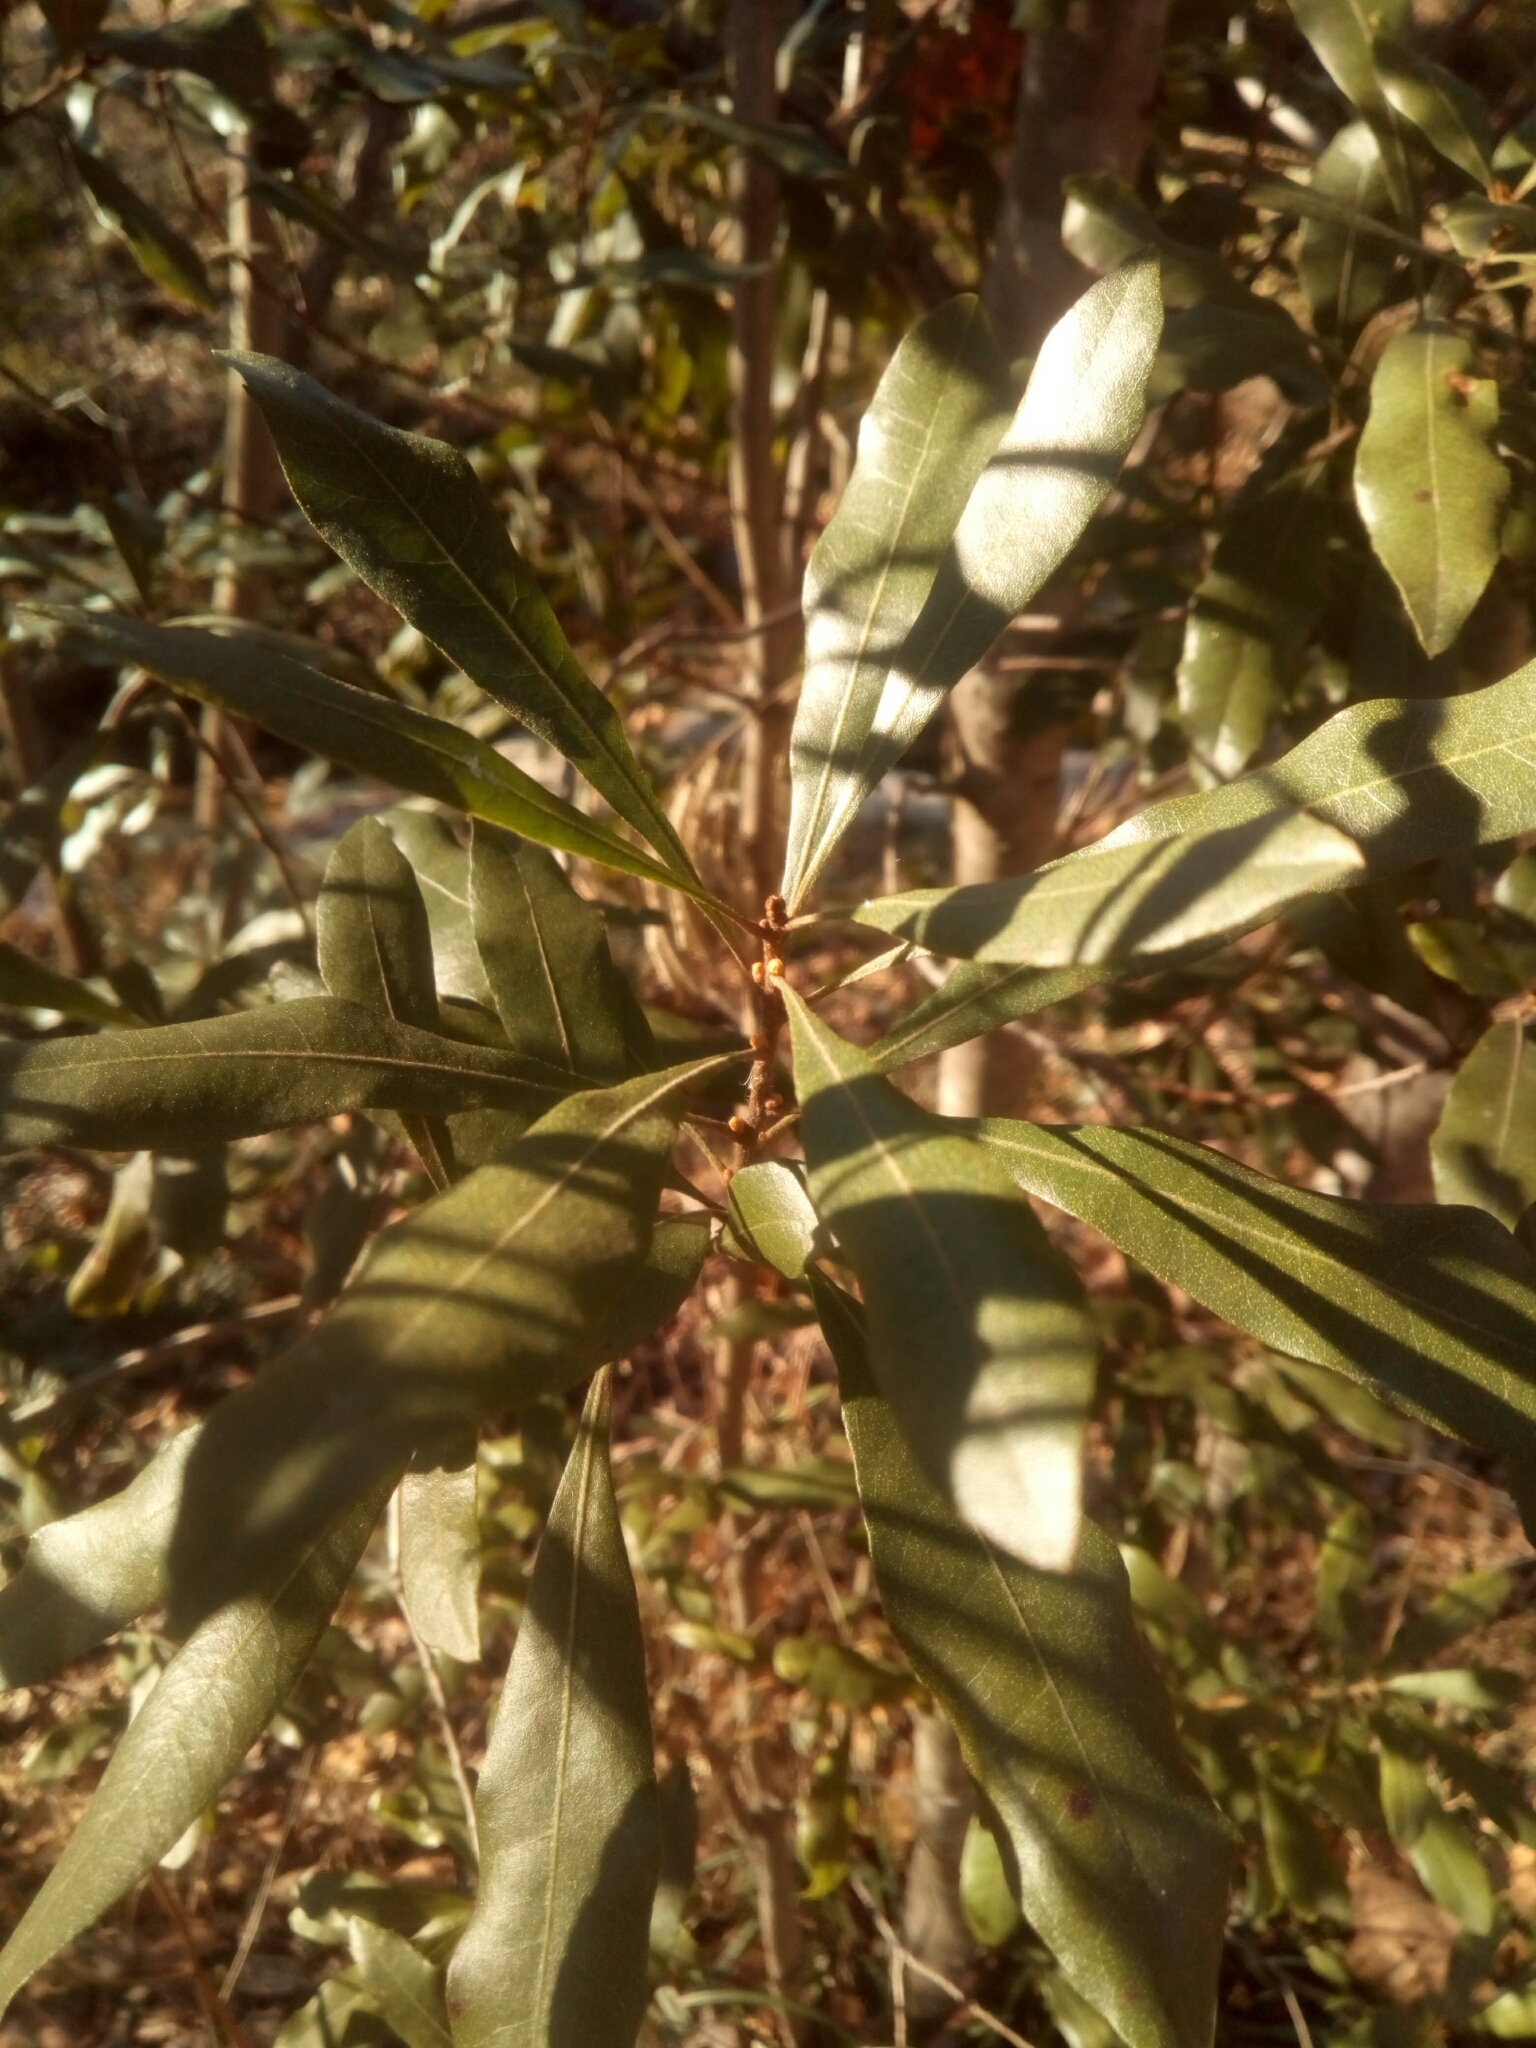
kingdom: Plantae
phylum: Tracheophyta
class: Magnoliopsida
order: Fagales
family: Myricaceae
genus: Morella
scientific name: Morella cerifera
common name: Wax myrtle
